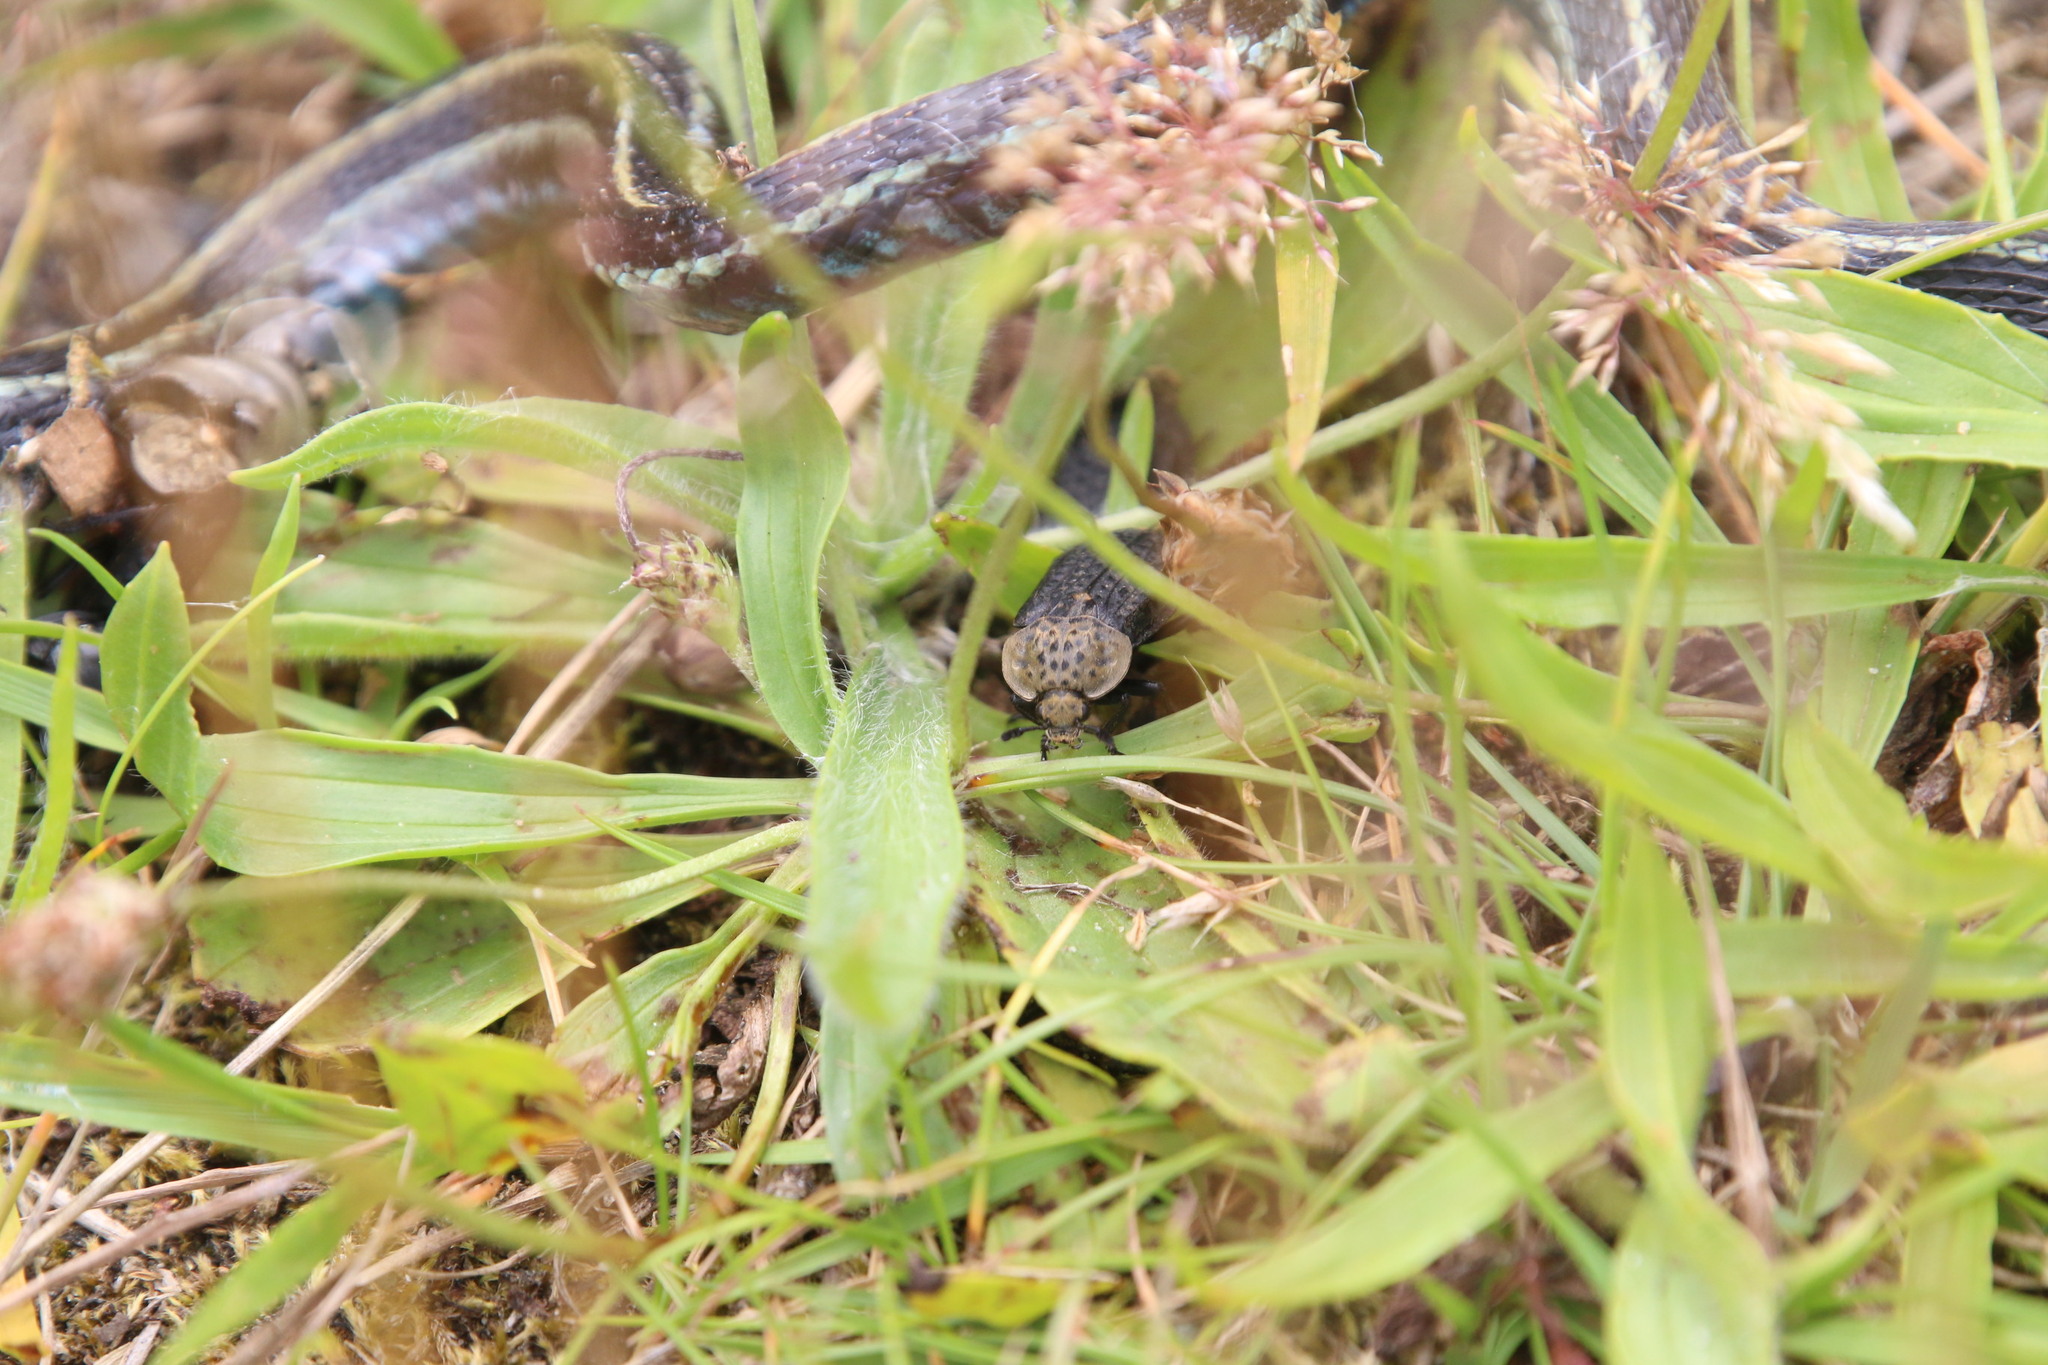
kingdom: Animalia
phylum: Arthropoda
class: Insecta
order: Coleoptera
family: Staphylinidae
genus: Thanatophilus
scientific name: Thanatophilus lapponicus
